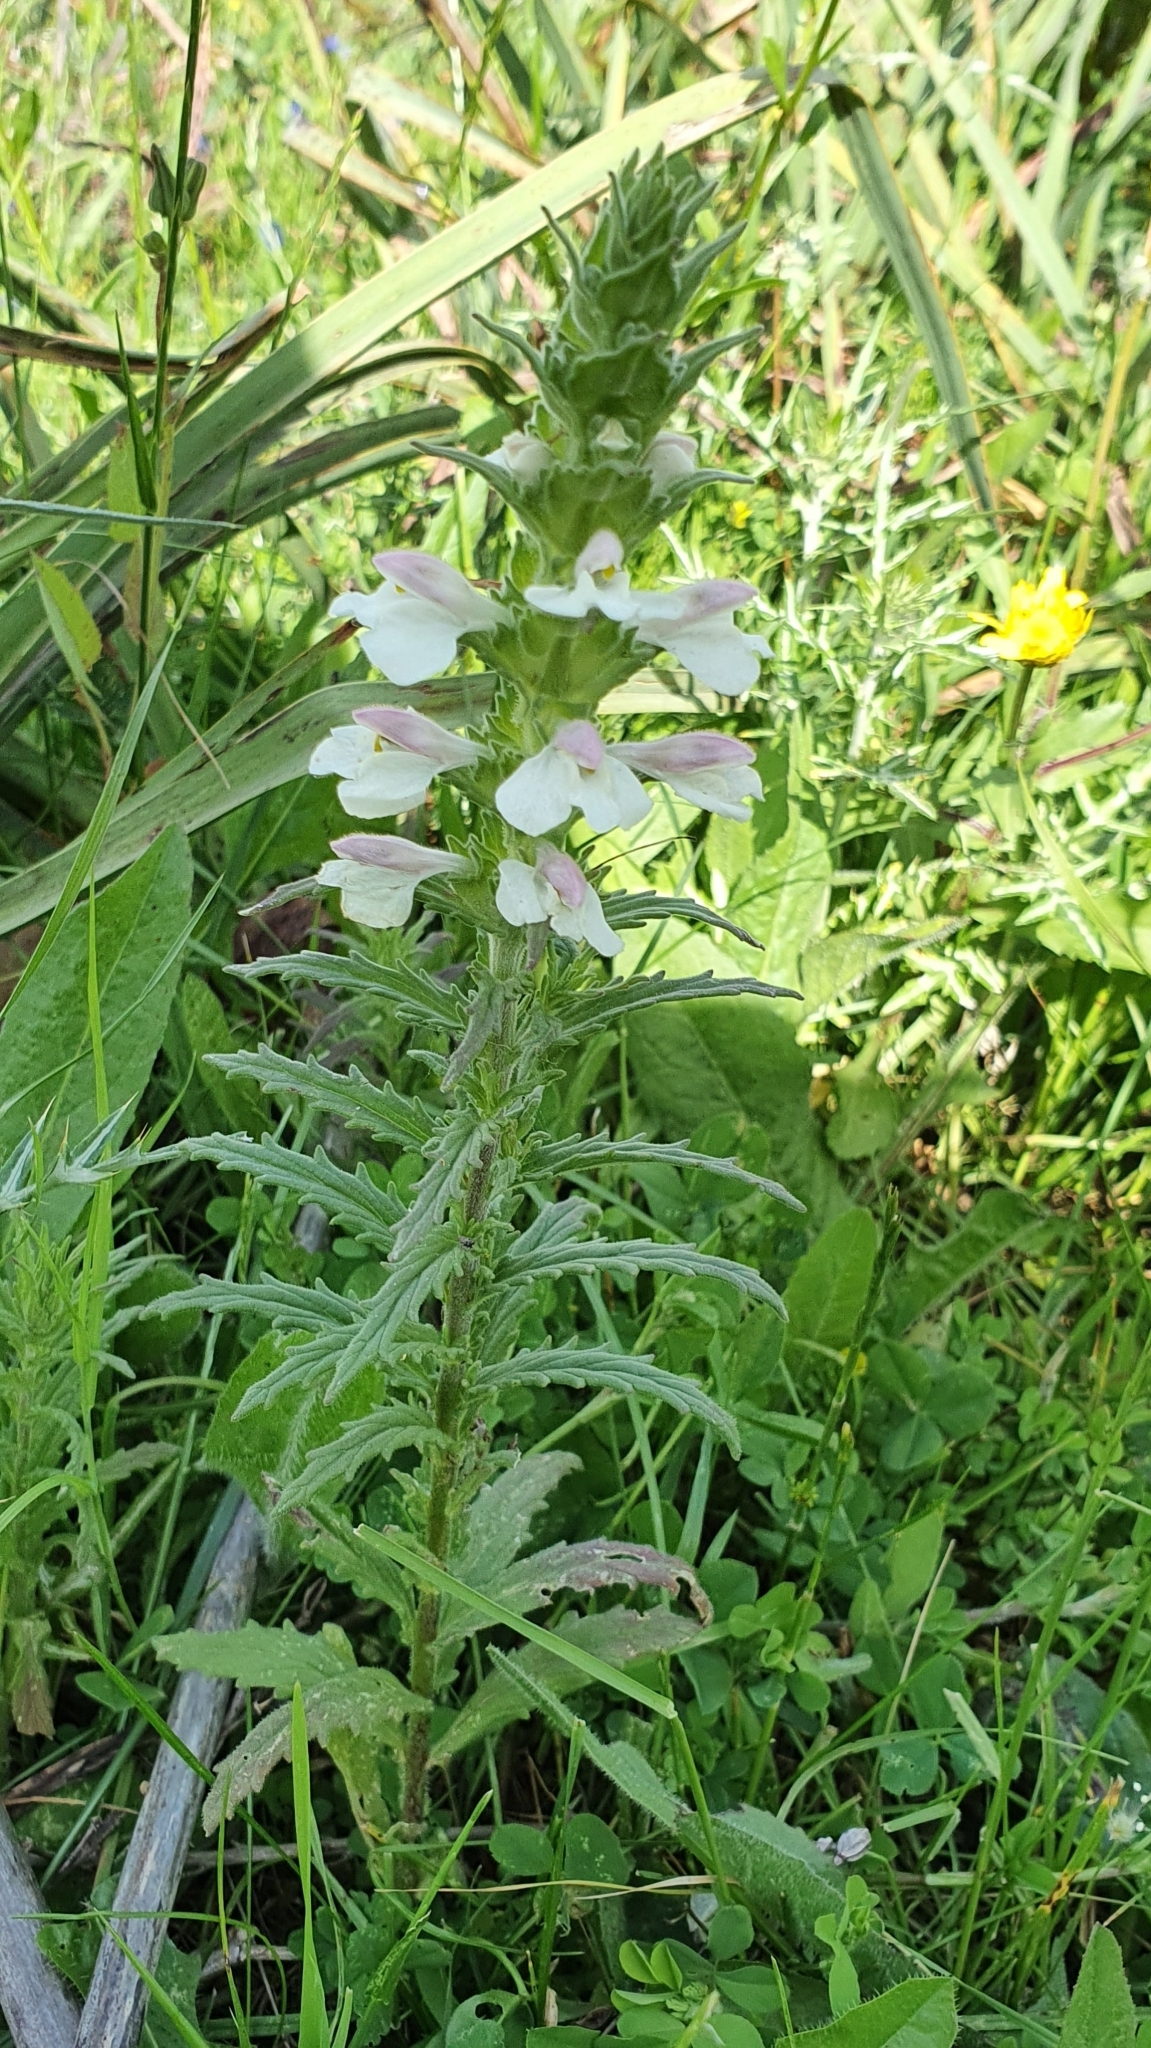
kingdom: Plantae
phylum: Tracheophyta
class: Magnoliopsida
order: Lamiales
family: Orobanchaceae
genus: Bellardia
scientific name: Bellardia trixago
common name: Mediterranean lineseed
